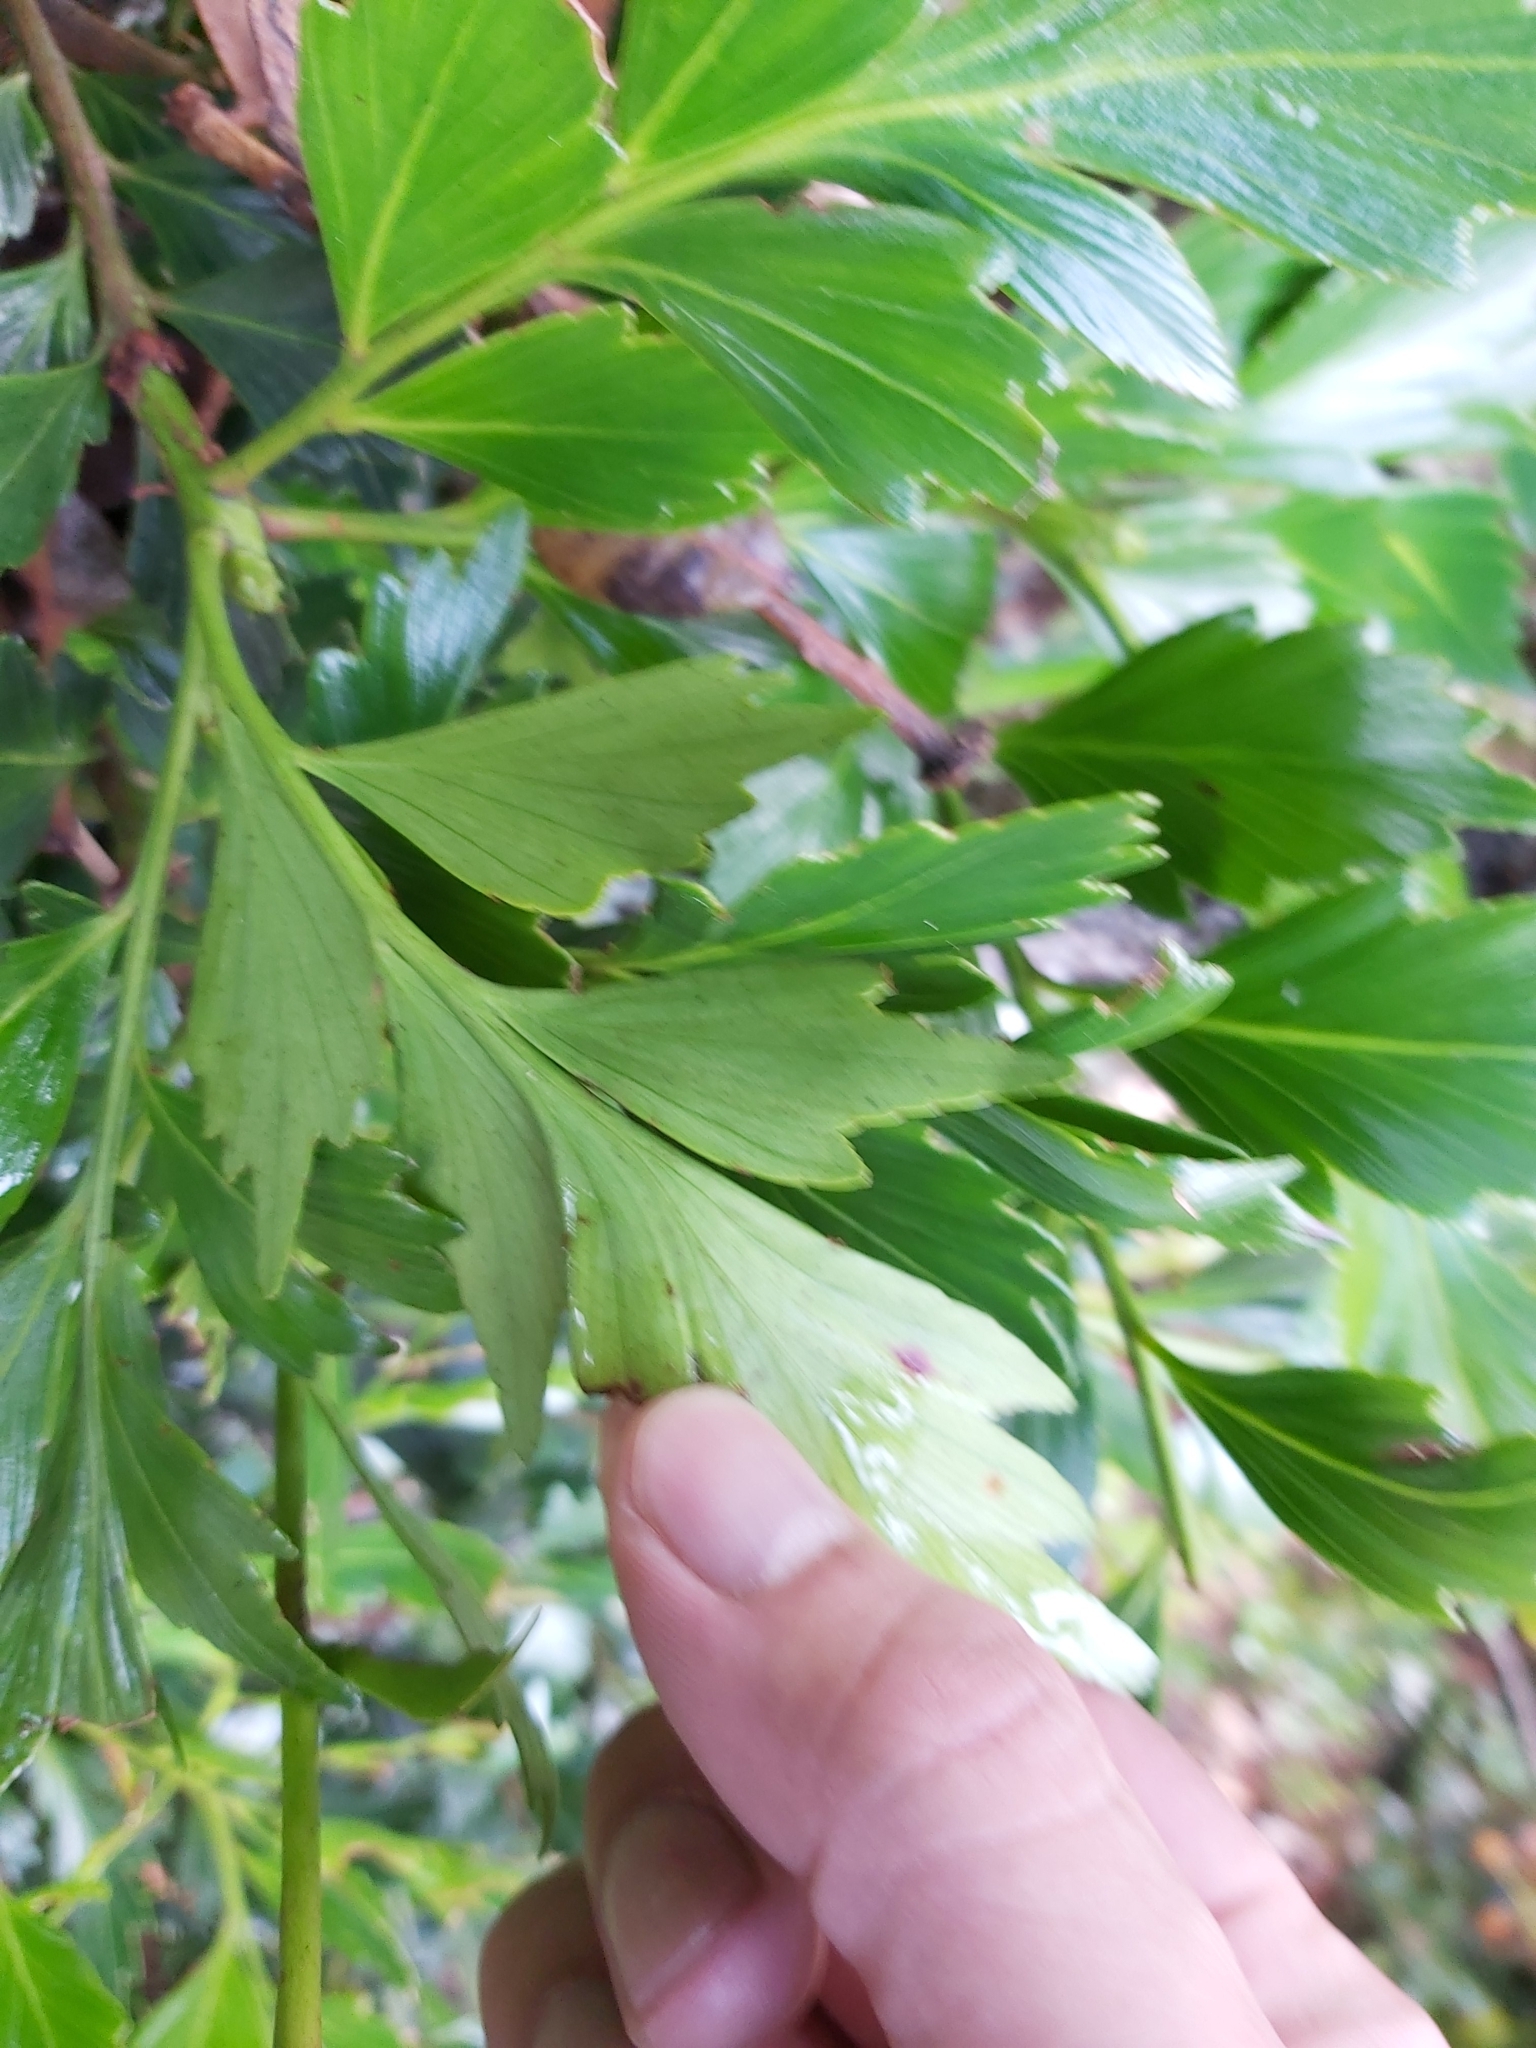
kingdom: Plantae
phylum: Tracheophyta
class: Pinopsida
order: Pinales
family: Phyllocladaceae
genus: Phyllocladus
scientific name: Phyllocladus hypophyllus
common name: Celery pine
